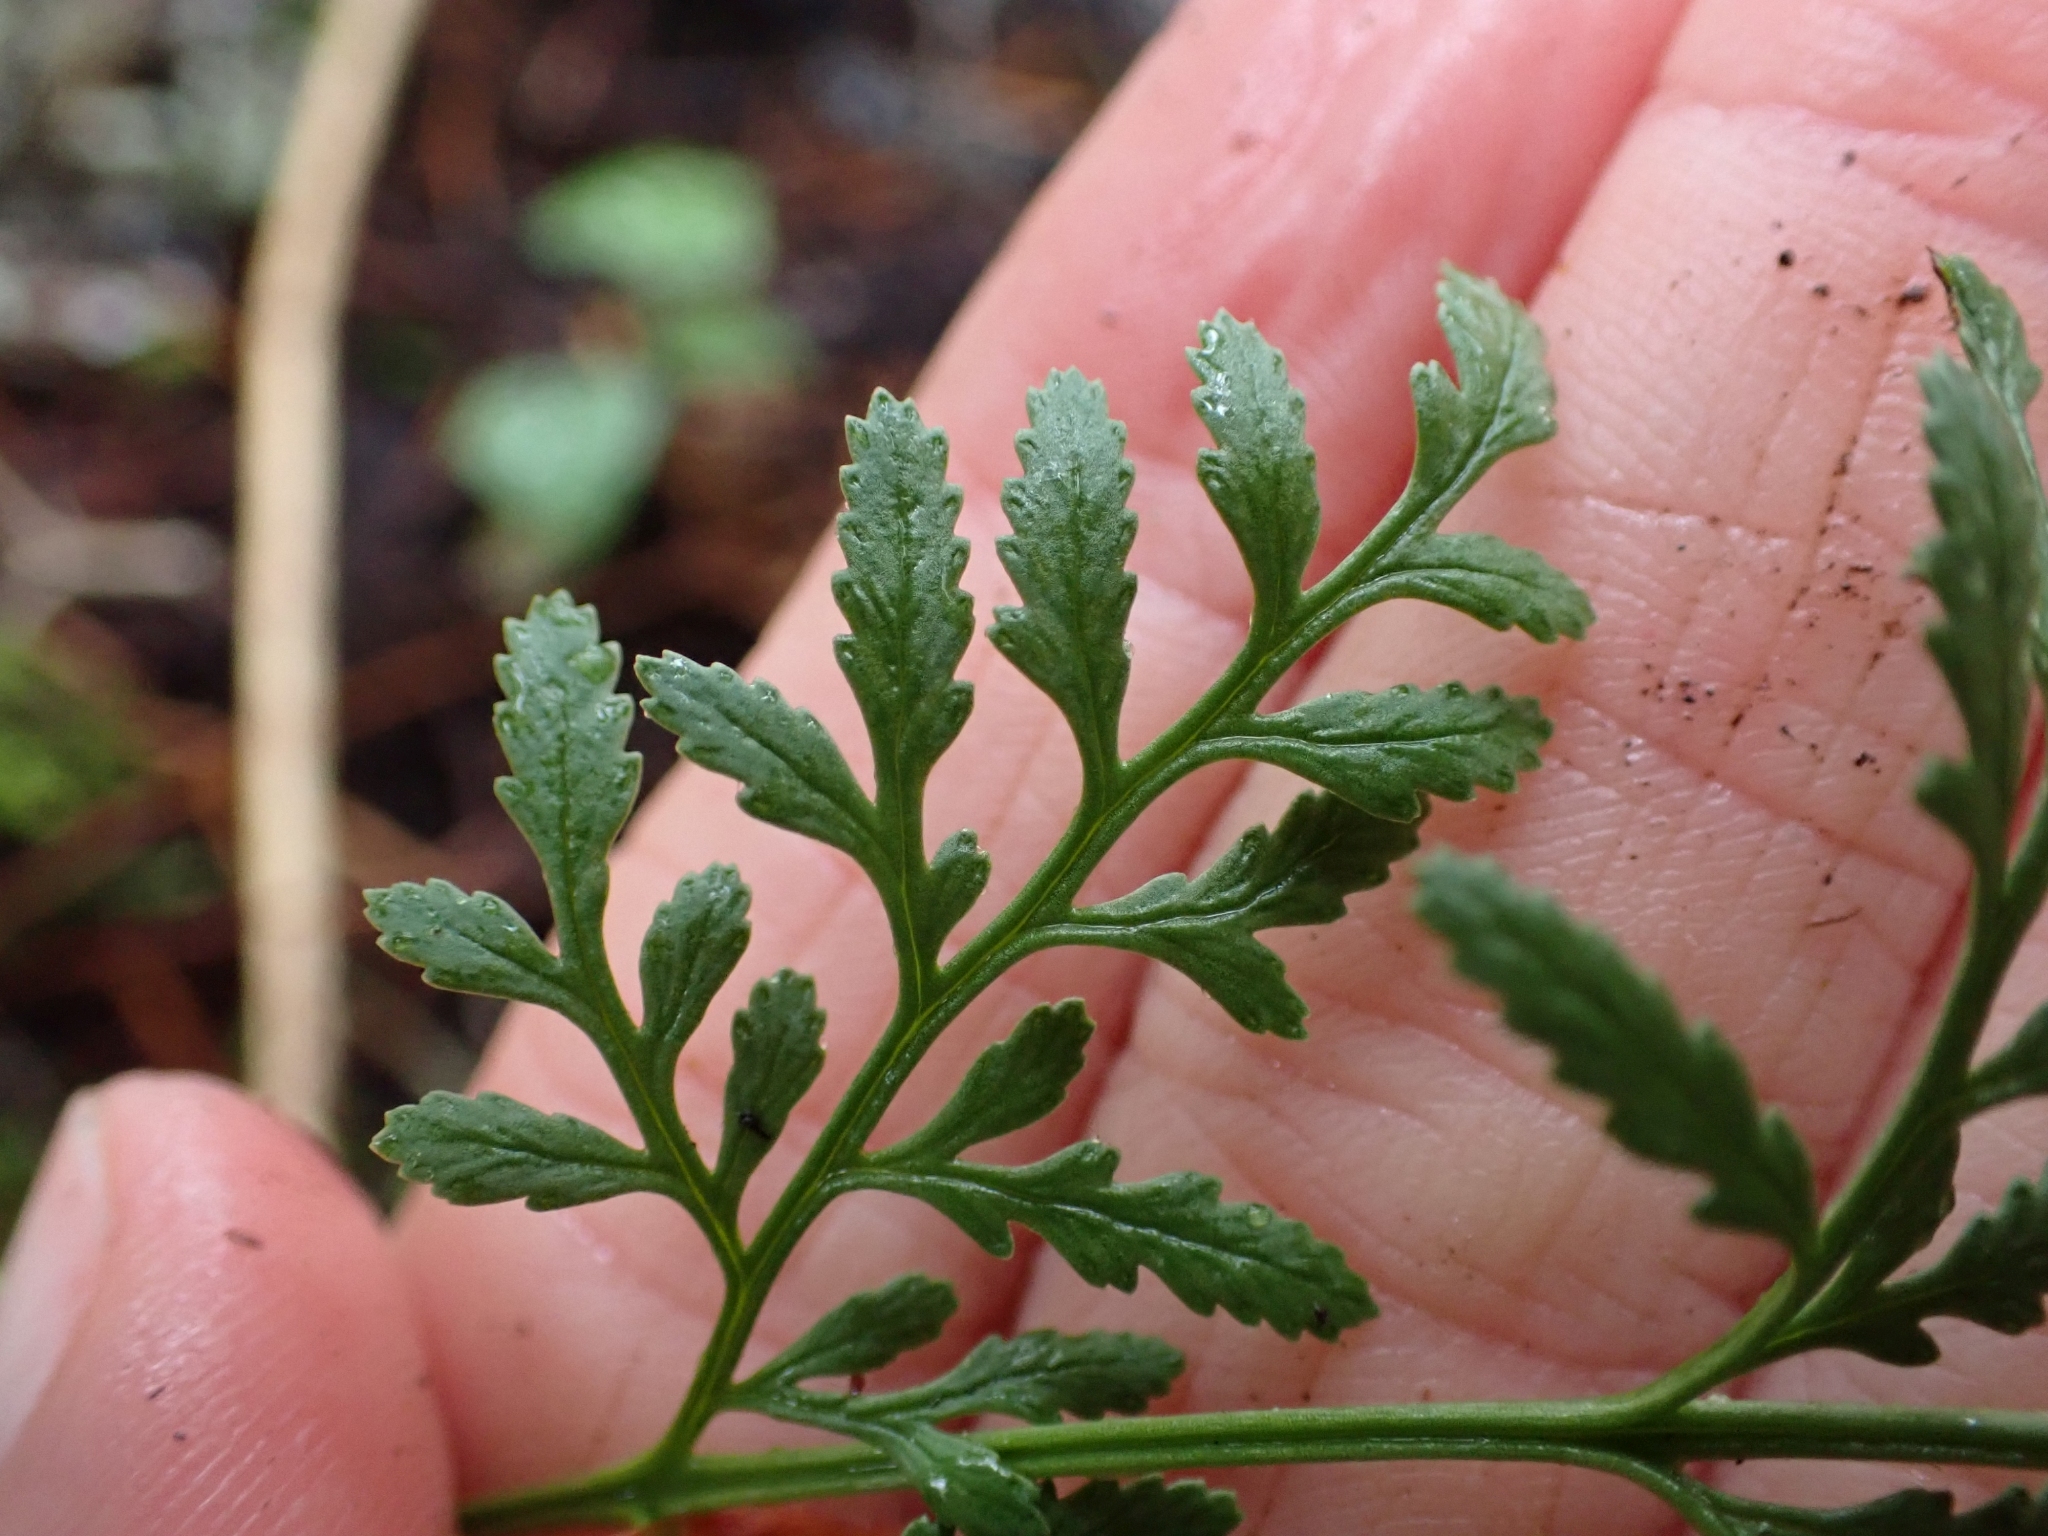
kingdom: Plantae
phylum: Tracheophyta
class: Polypodiopsida
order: Polypodiales
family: Pteridaceae
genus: Cryptogramma
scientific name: Cryptogramma acrostichoides
